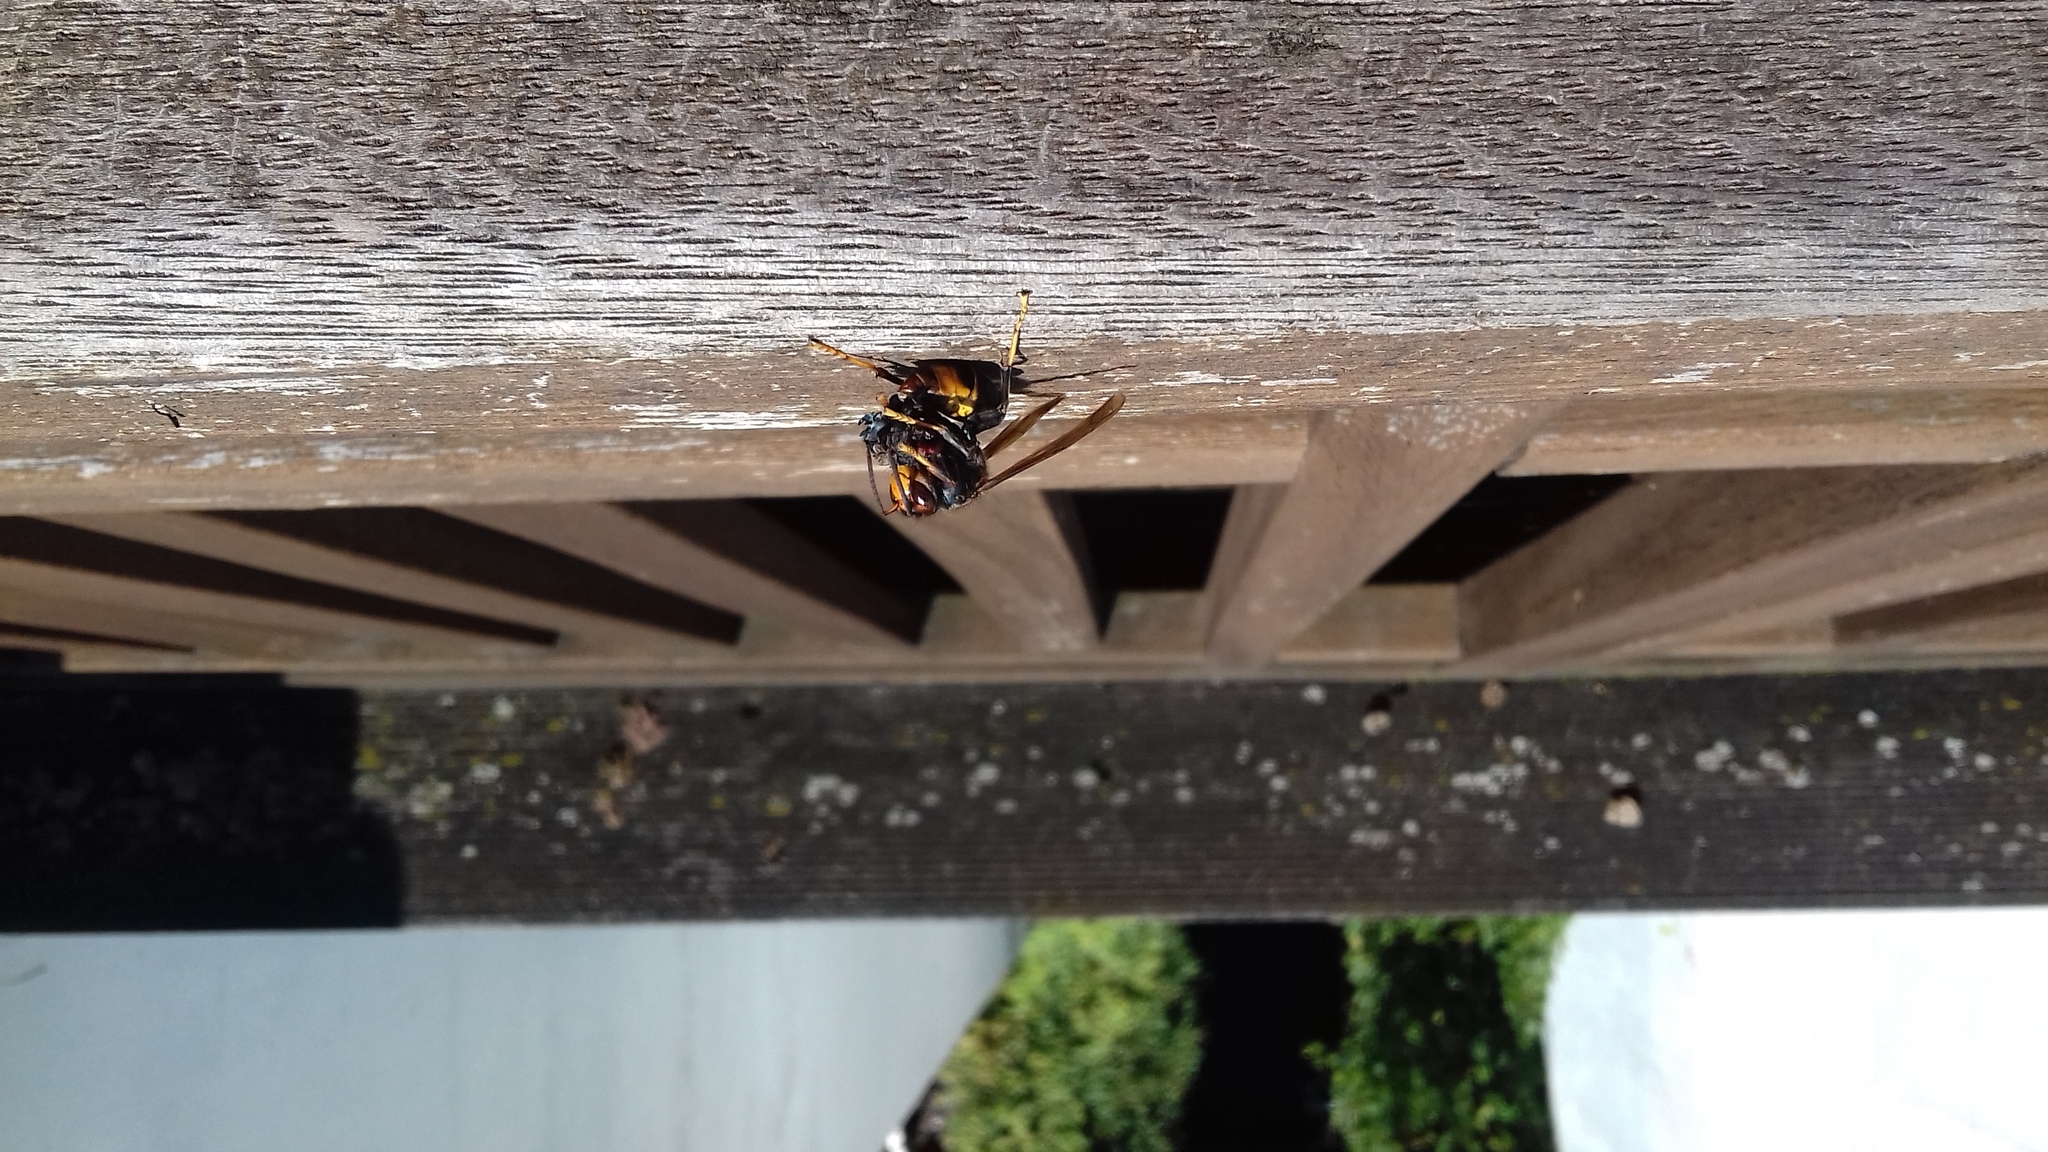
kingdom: Animalia
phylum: Arthropoda
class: Insecta
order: Hymenoptera
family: Vespidae
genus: Vespa
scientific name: Vespa velutina
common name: Asian hornet
